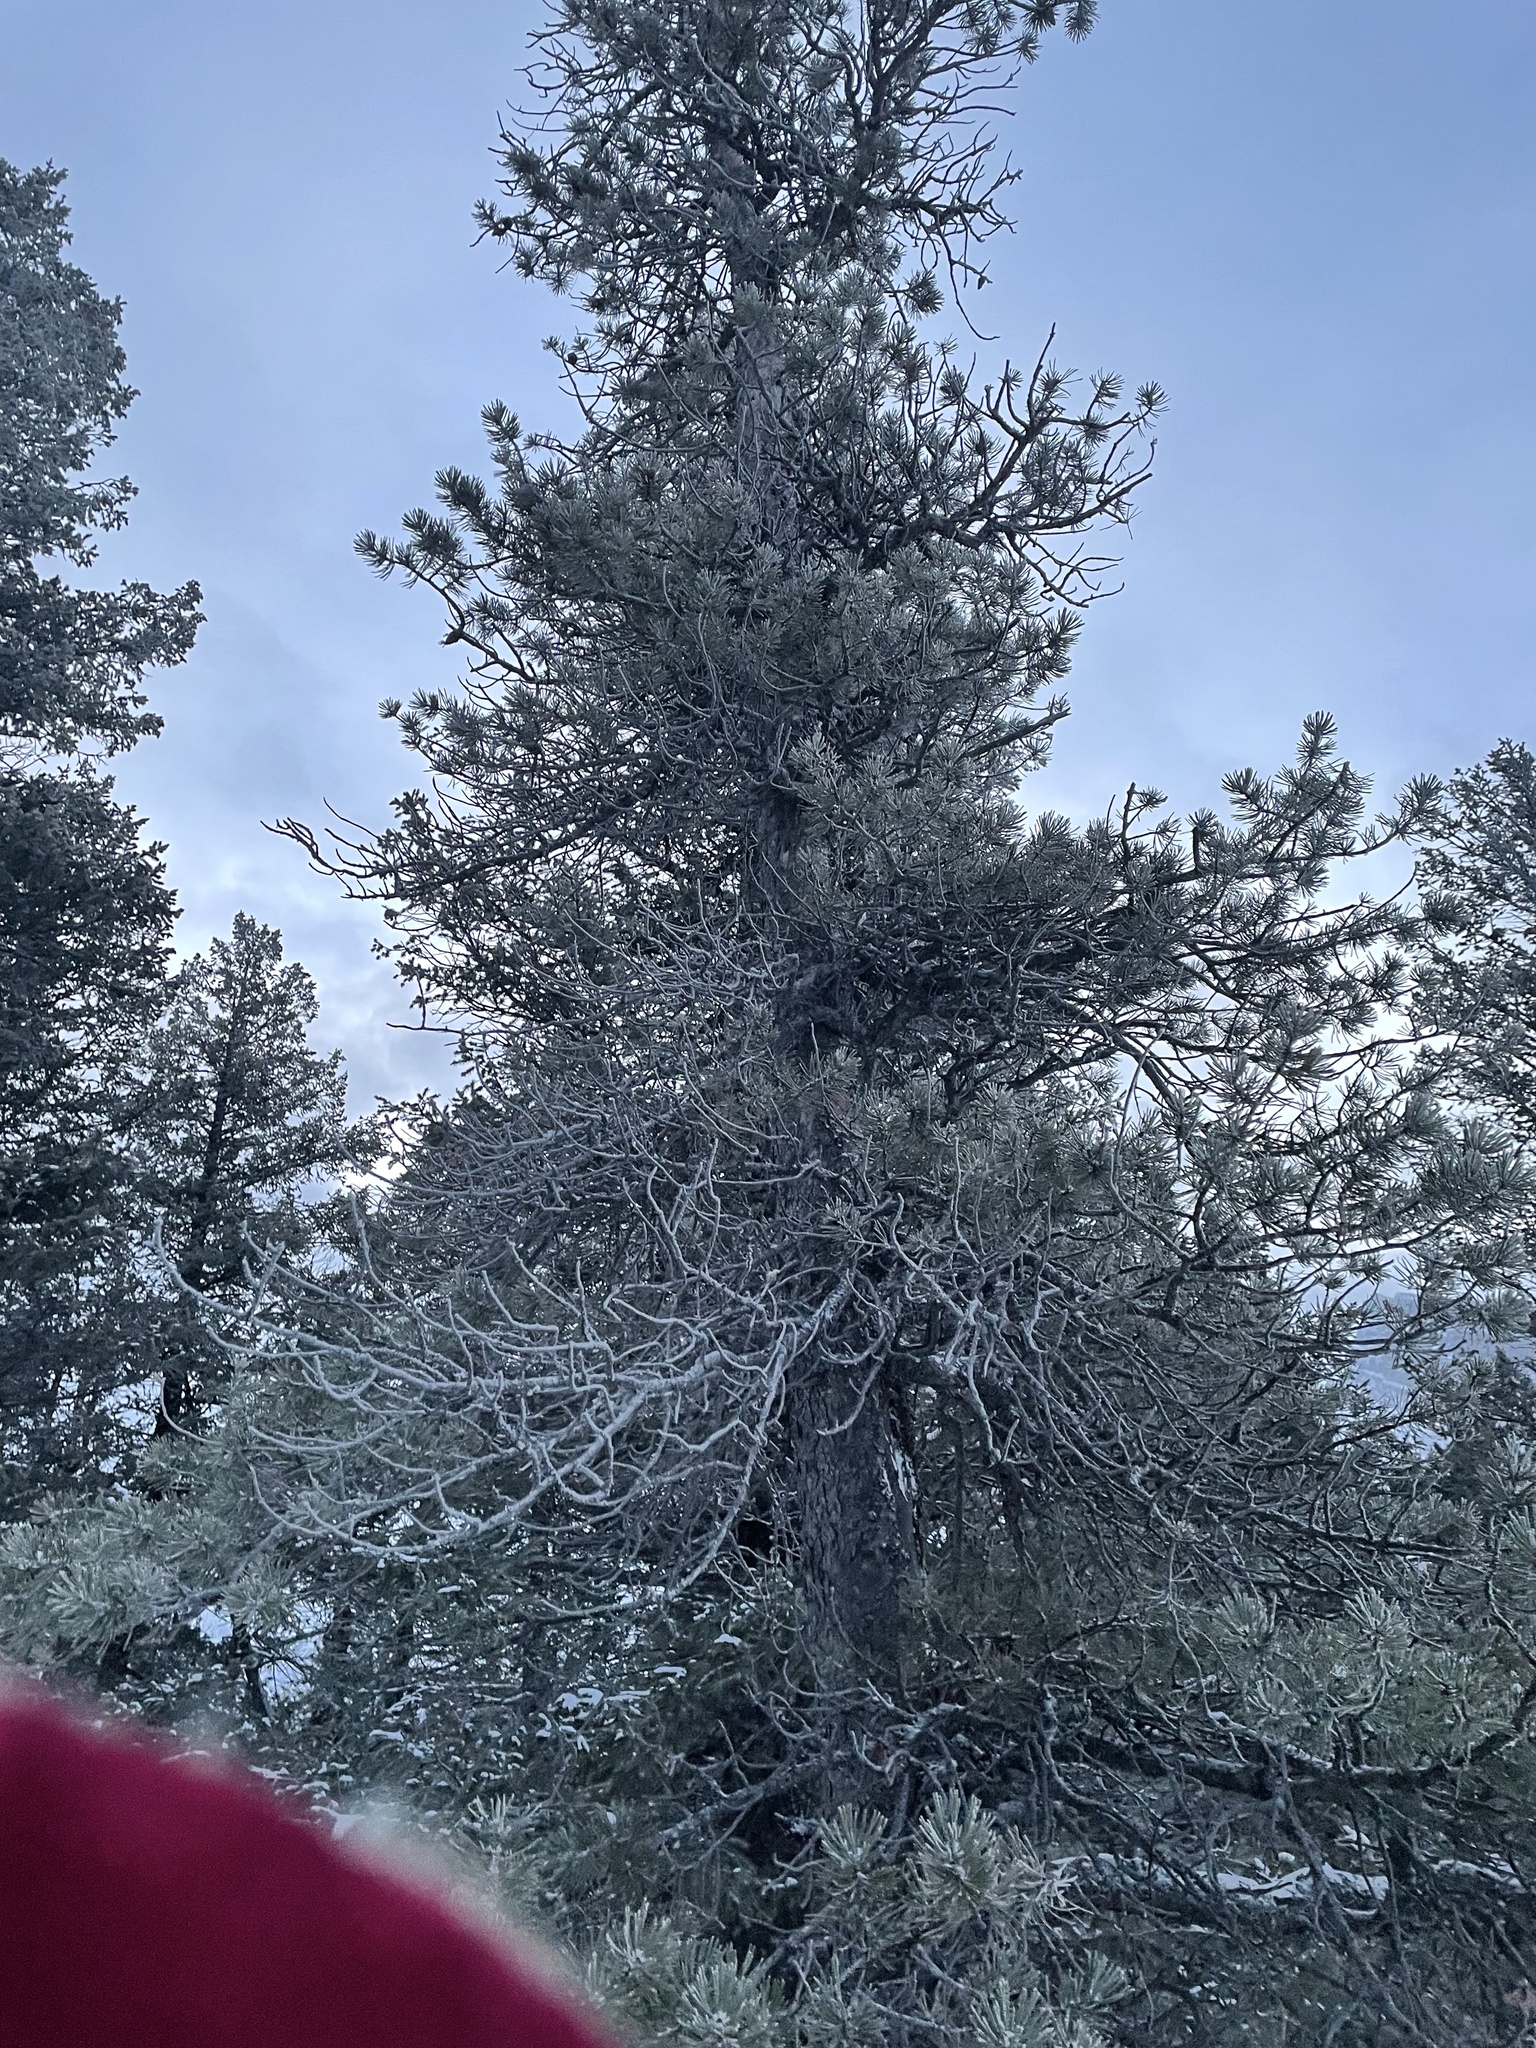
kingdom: Plantae
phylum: Tracheophyta
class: Pinopsida
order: Pinales
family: Pinaceae
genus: Pinus
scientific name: Pinus contorta
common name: Lodgepole pine
